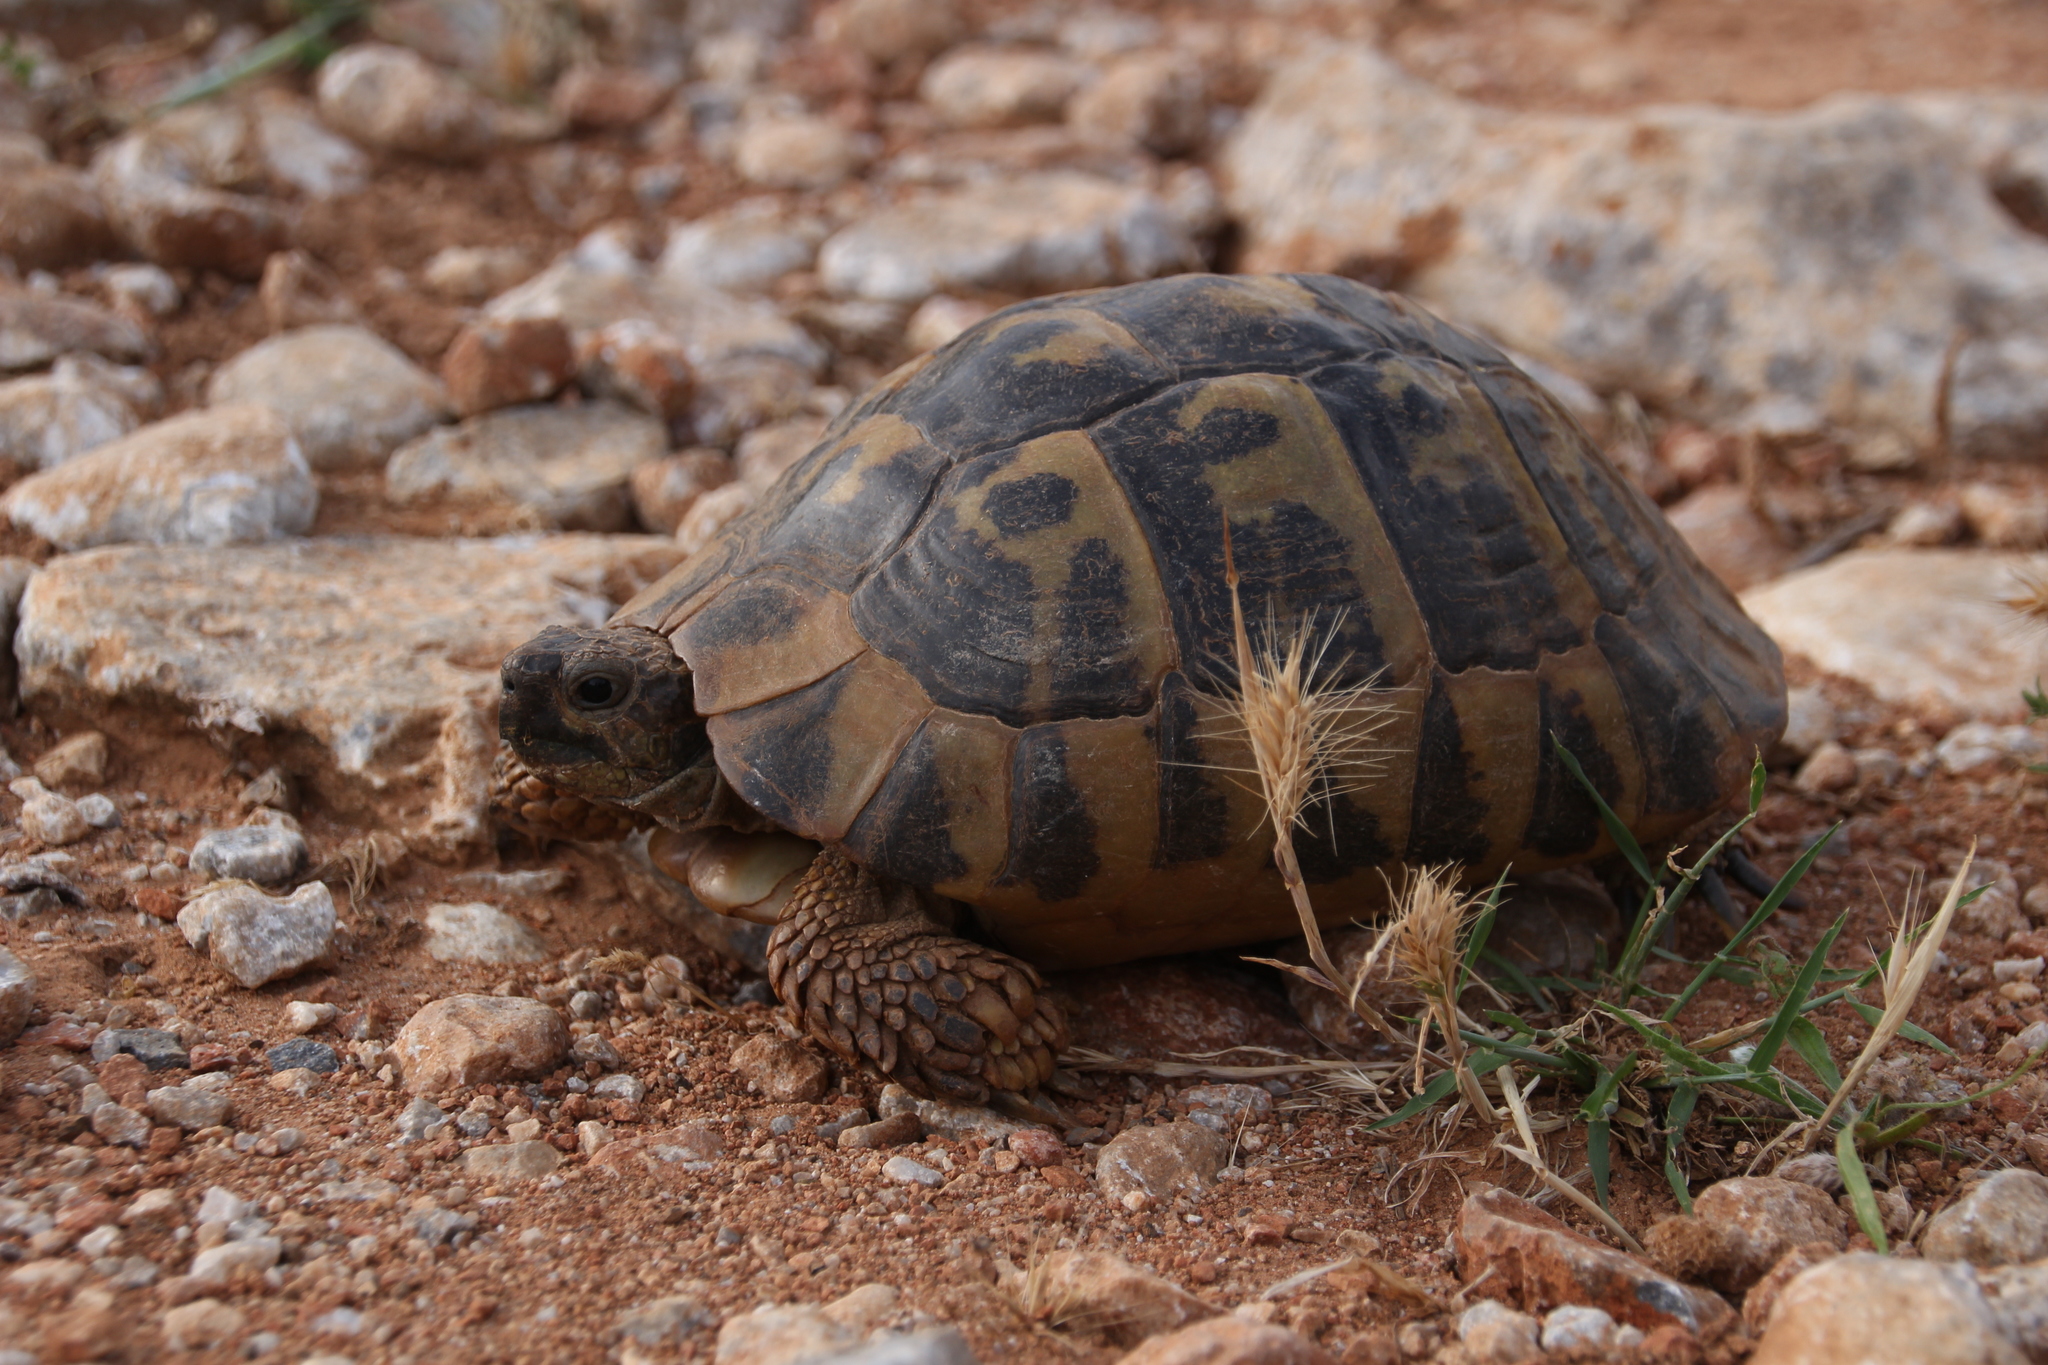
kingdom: Animalia
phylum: Chordata
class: Testudines
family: Testudinidae
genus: Testudo
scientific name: Testudo hermanni
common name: Hermann's tortoise
